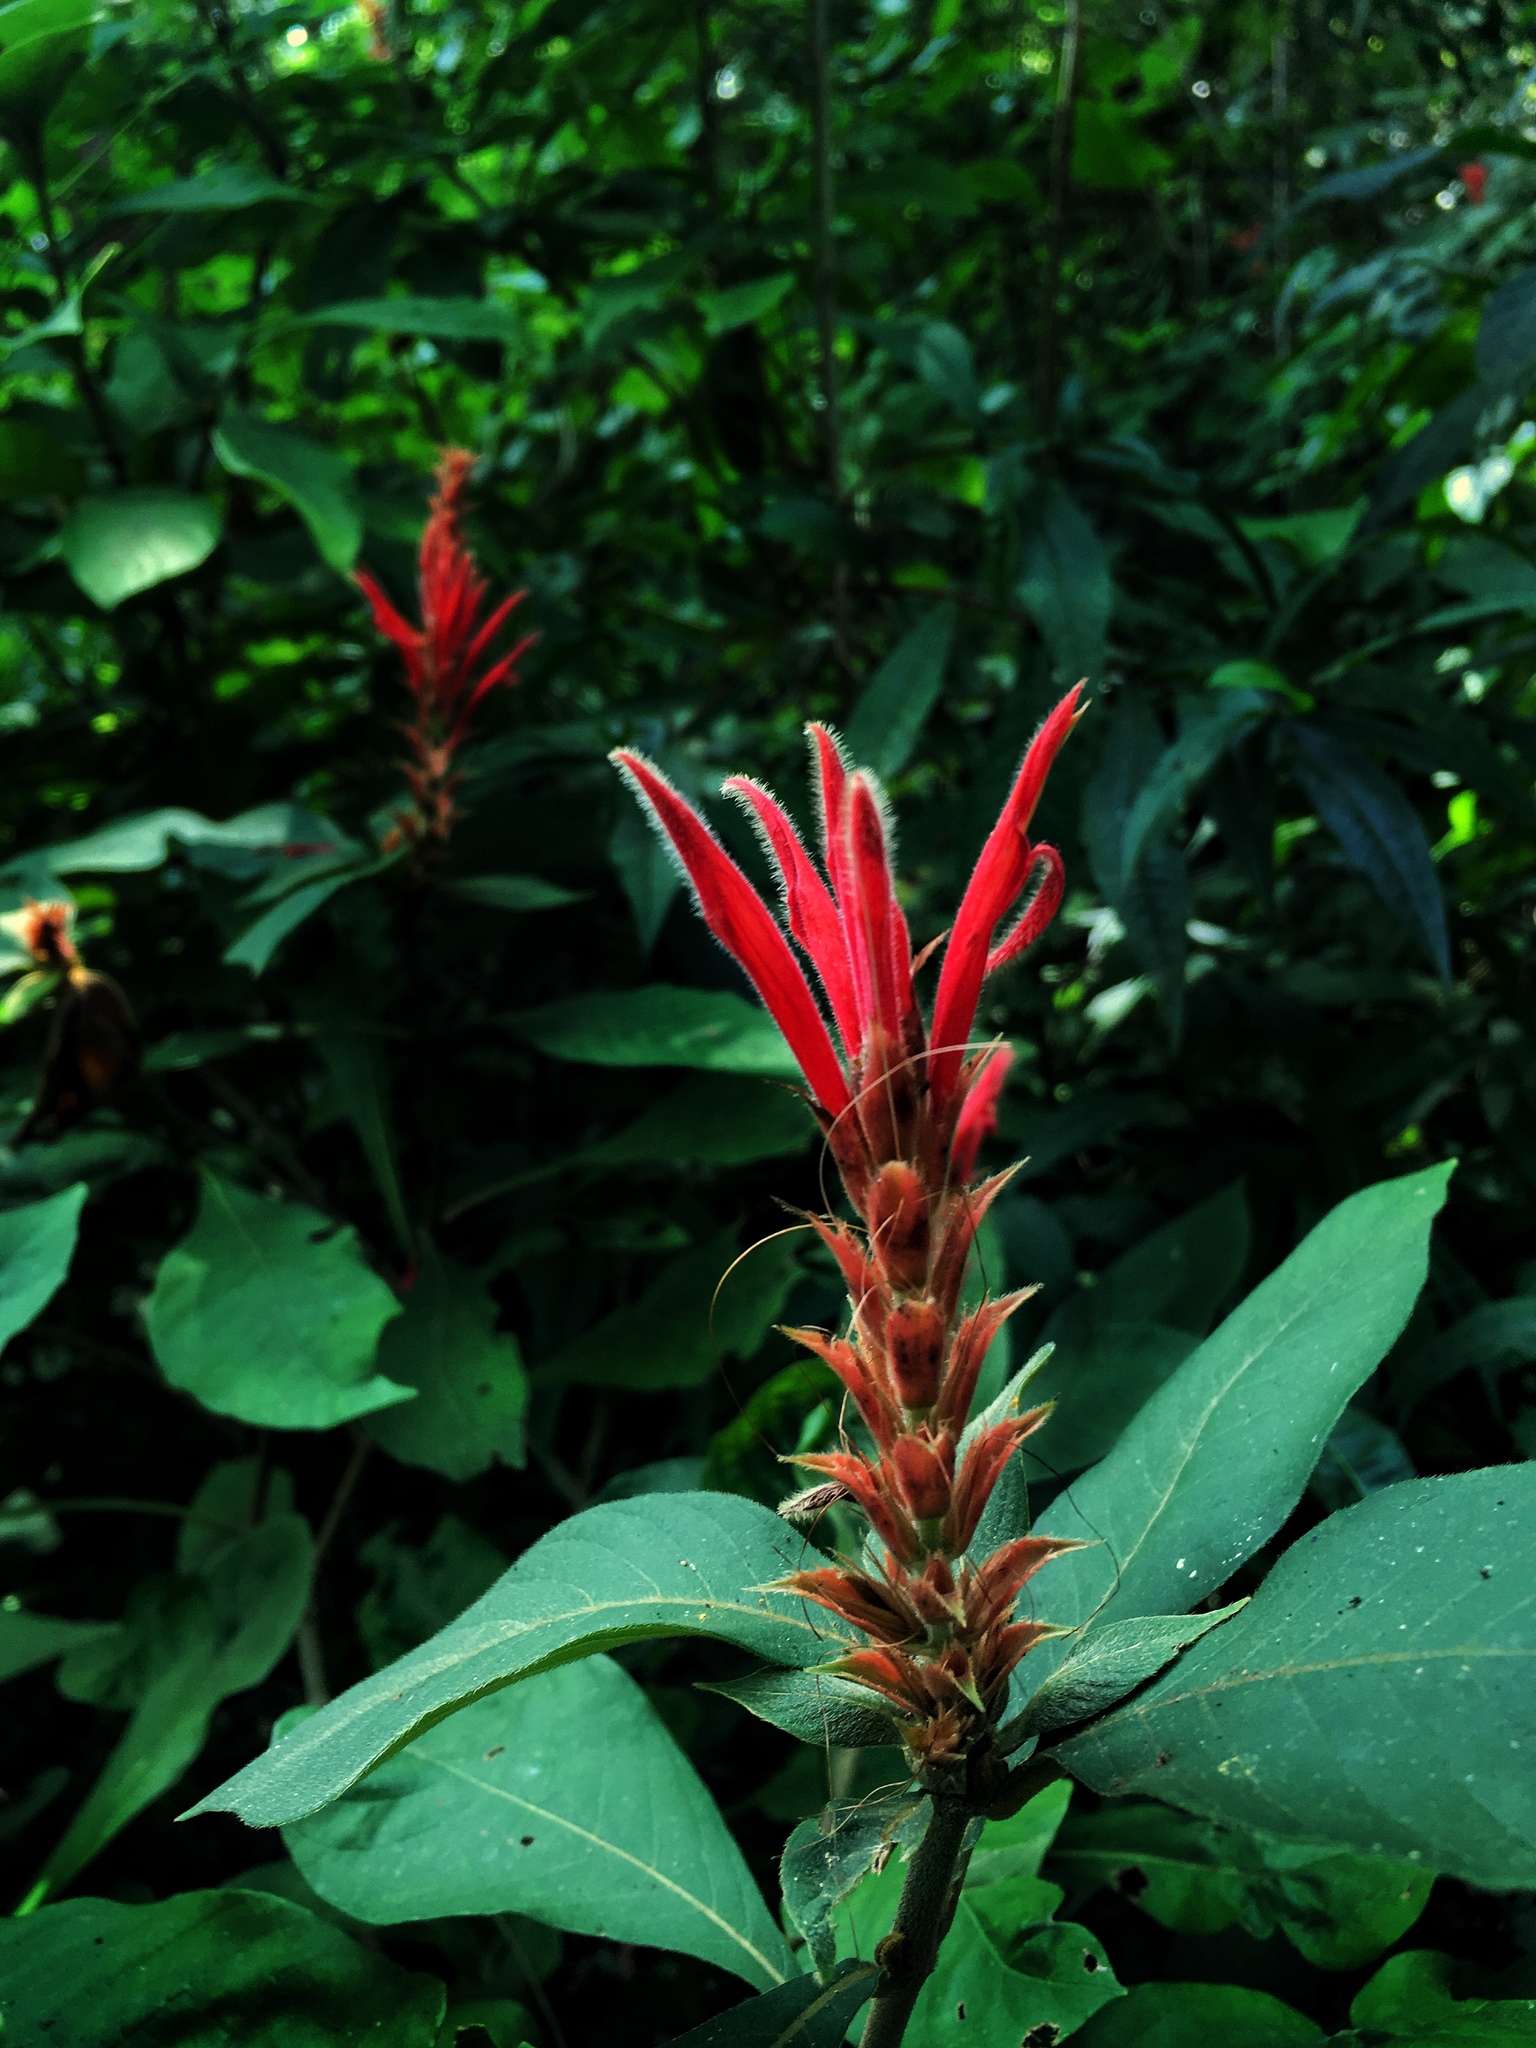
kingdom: Plantae
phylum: Tracheophyta
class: Magnoliopsida
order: Lamiales
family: Acanthaceae
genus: Aphelandra
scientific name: Aphelandra scabra
